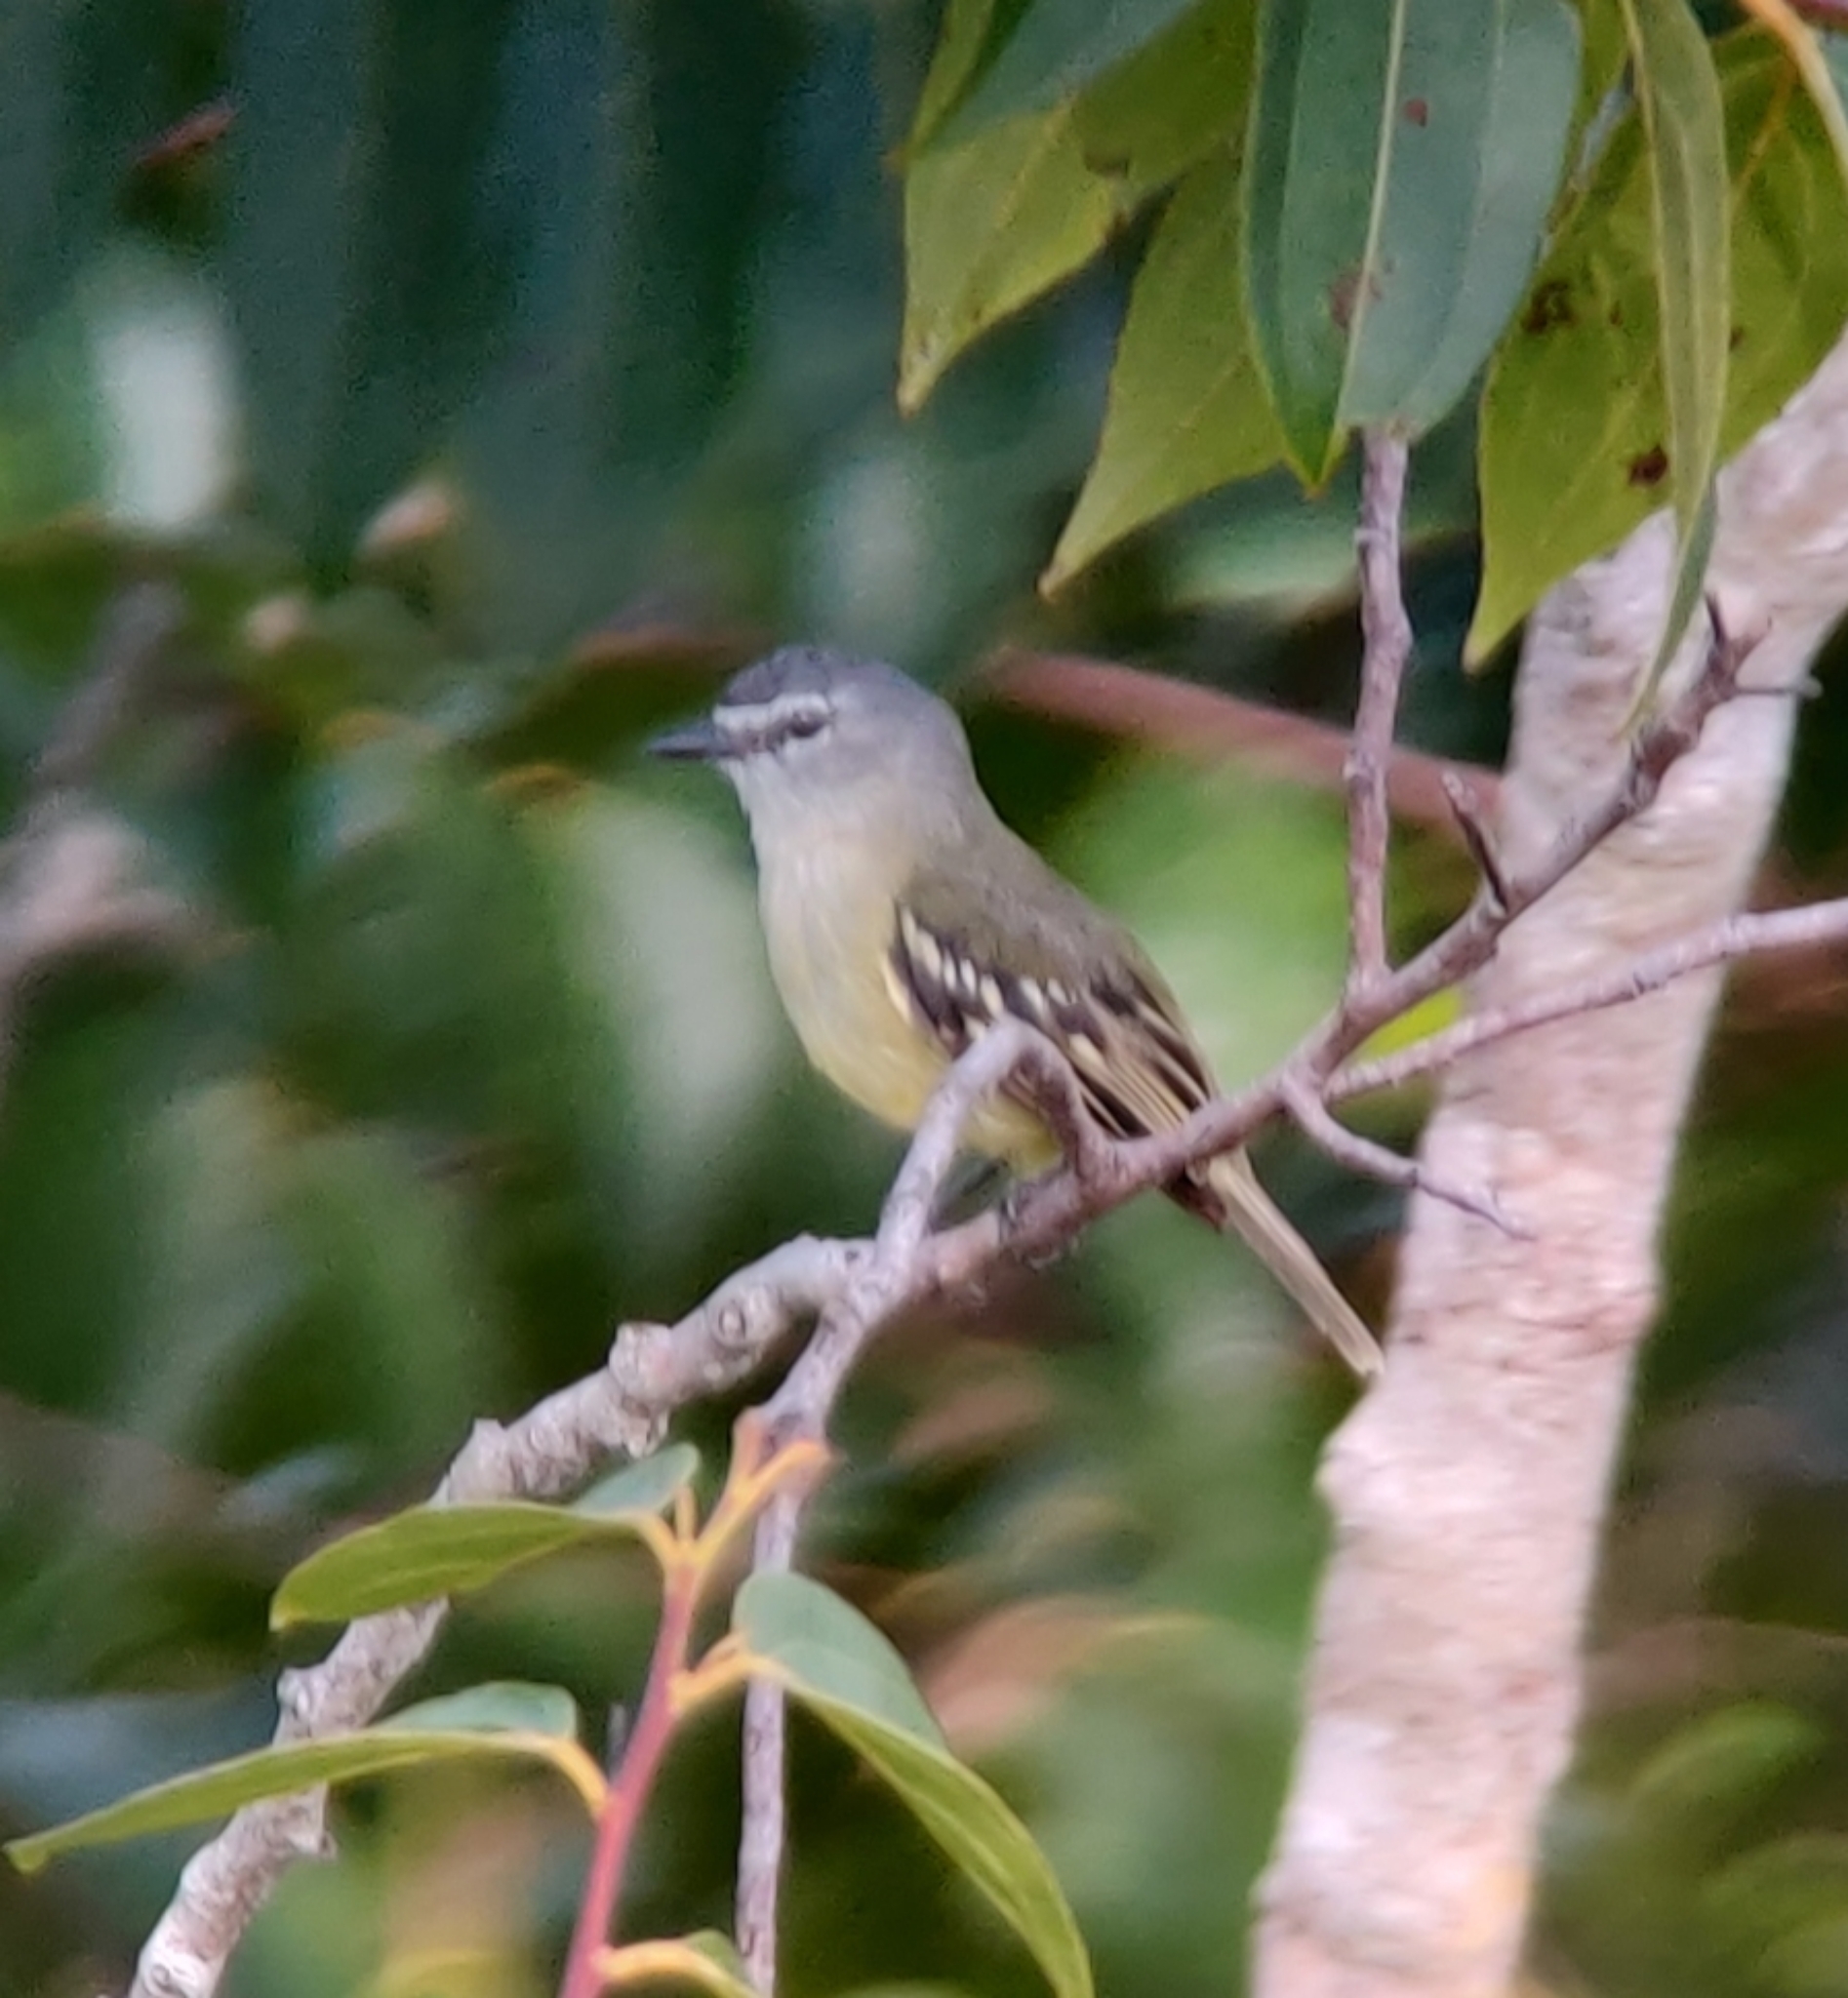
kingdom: Animalia
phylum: Chordata
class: Aves
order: Passeriformes
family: Tyrannidae
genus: Ornithion
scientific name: Ornithion inerme
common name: White-lored tyrannulet
